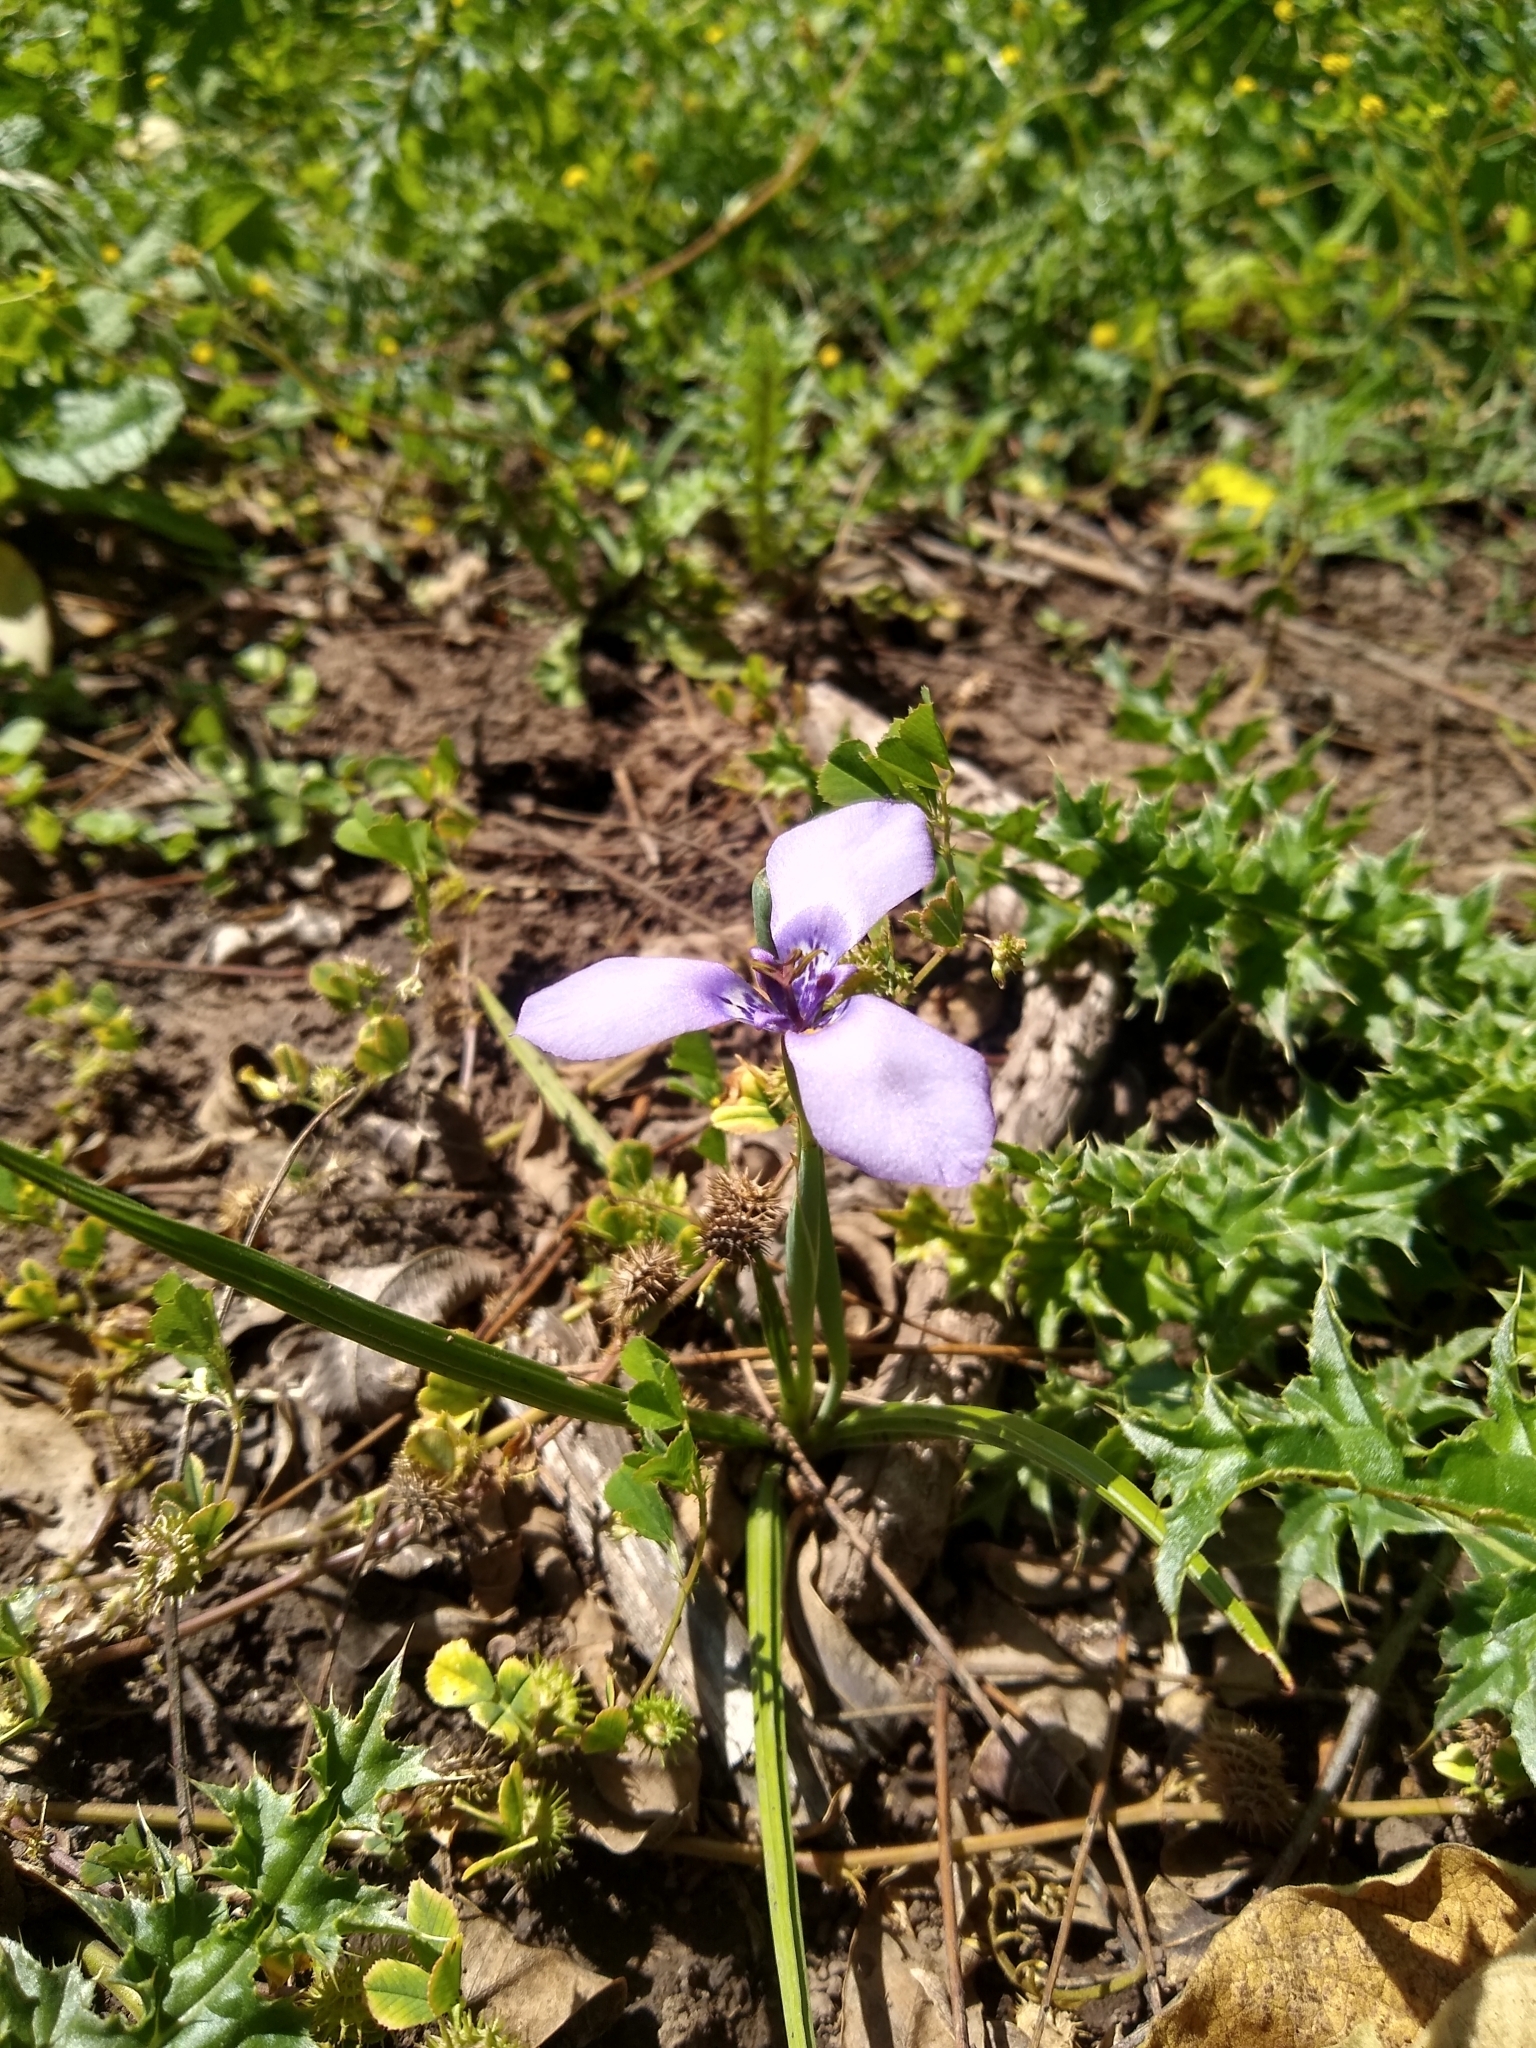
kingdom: Plantae
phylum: Tracheophyta
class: Liliopsida
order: Asparagales
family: Iridaceae
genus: Herbertia
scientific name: Herbertia lahue
